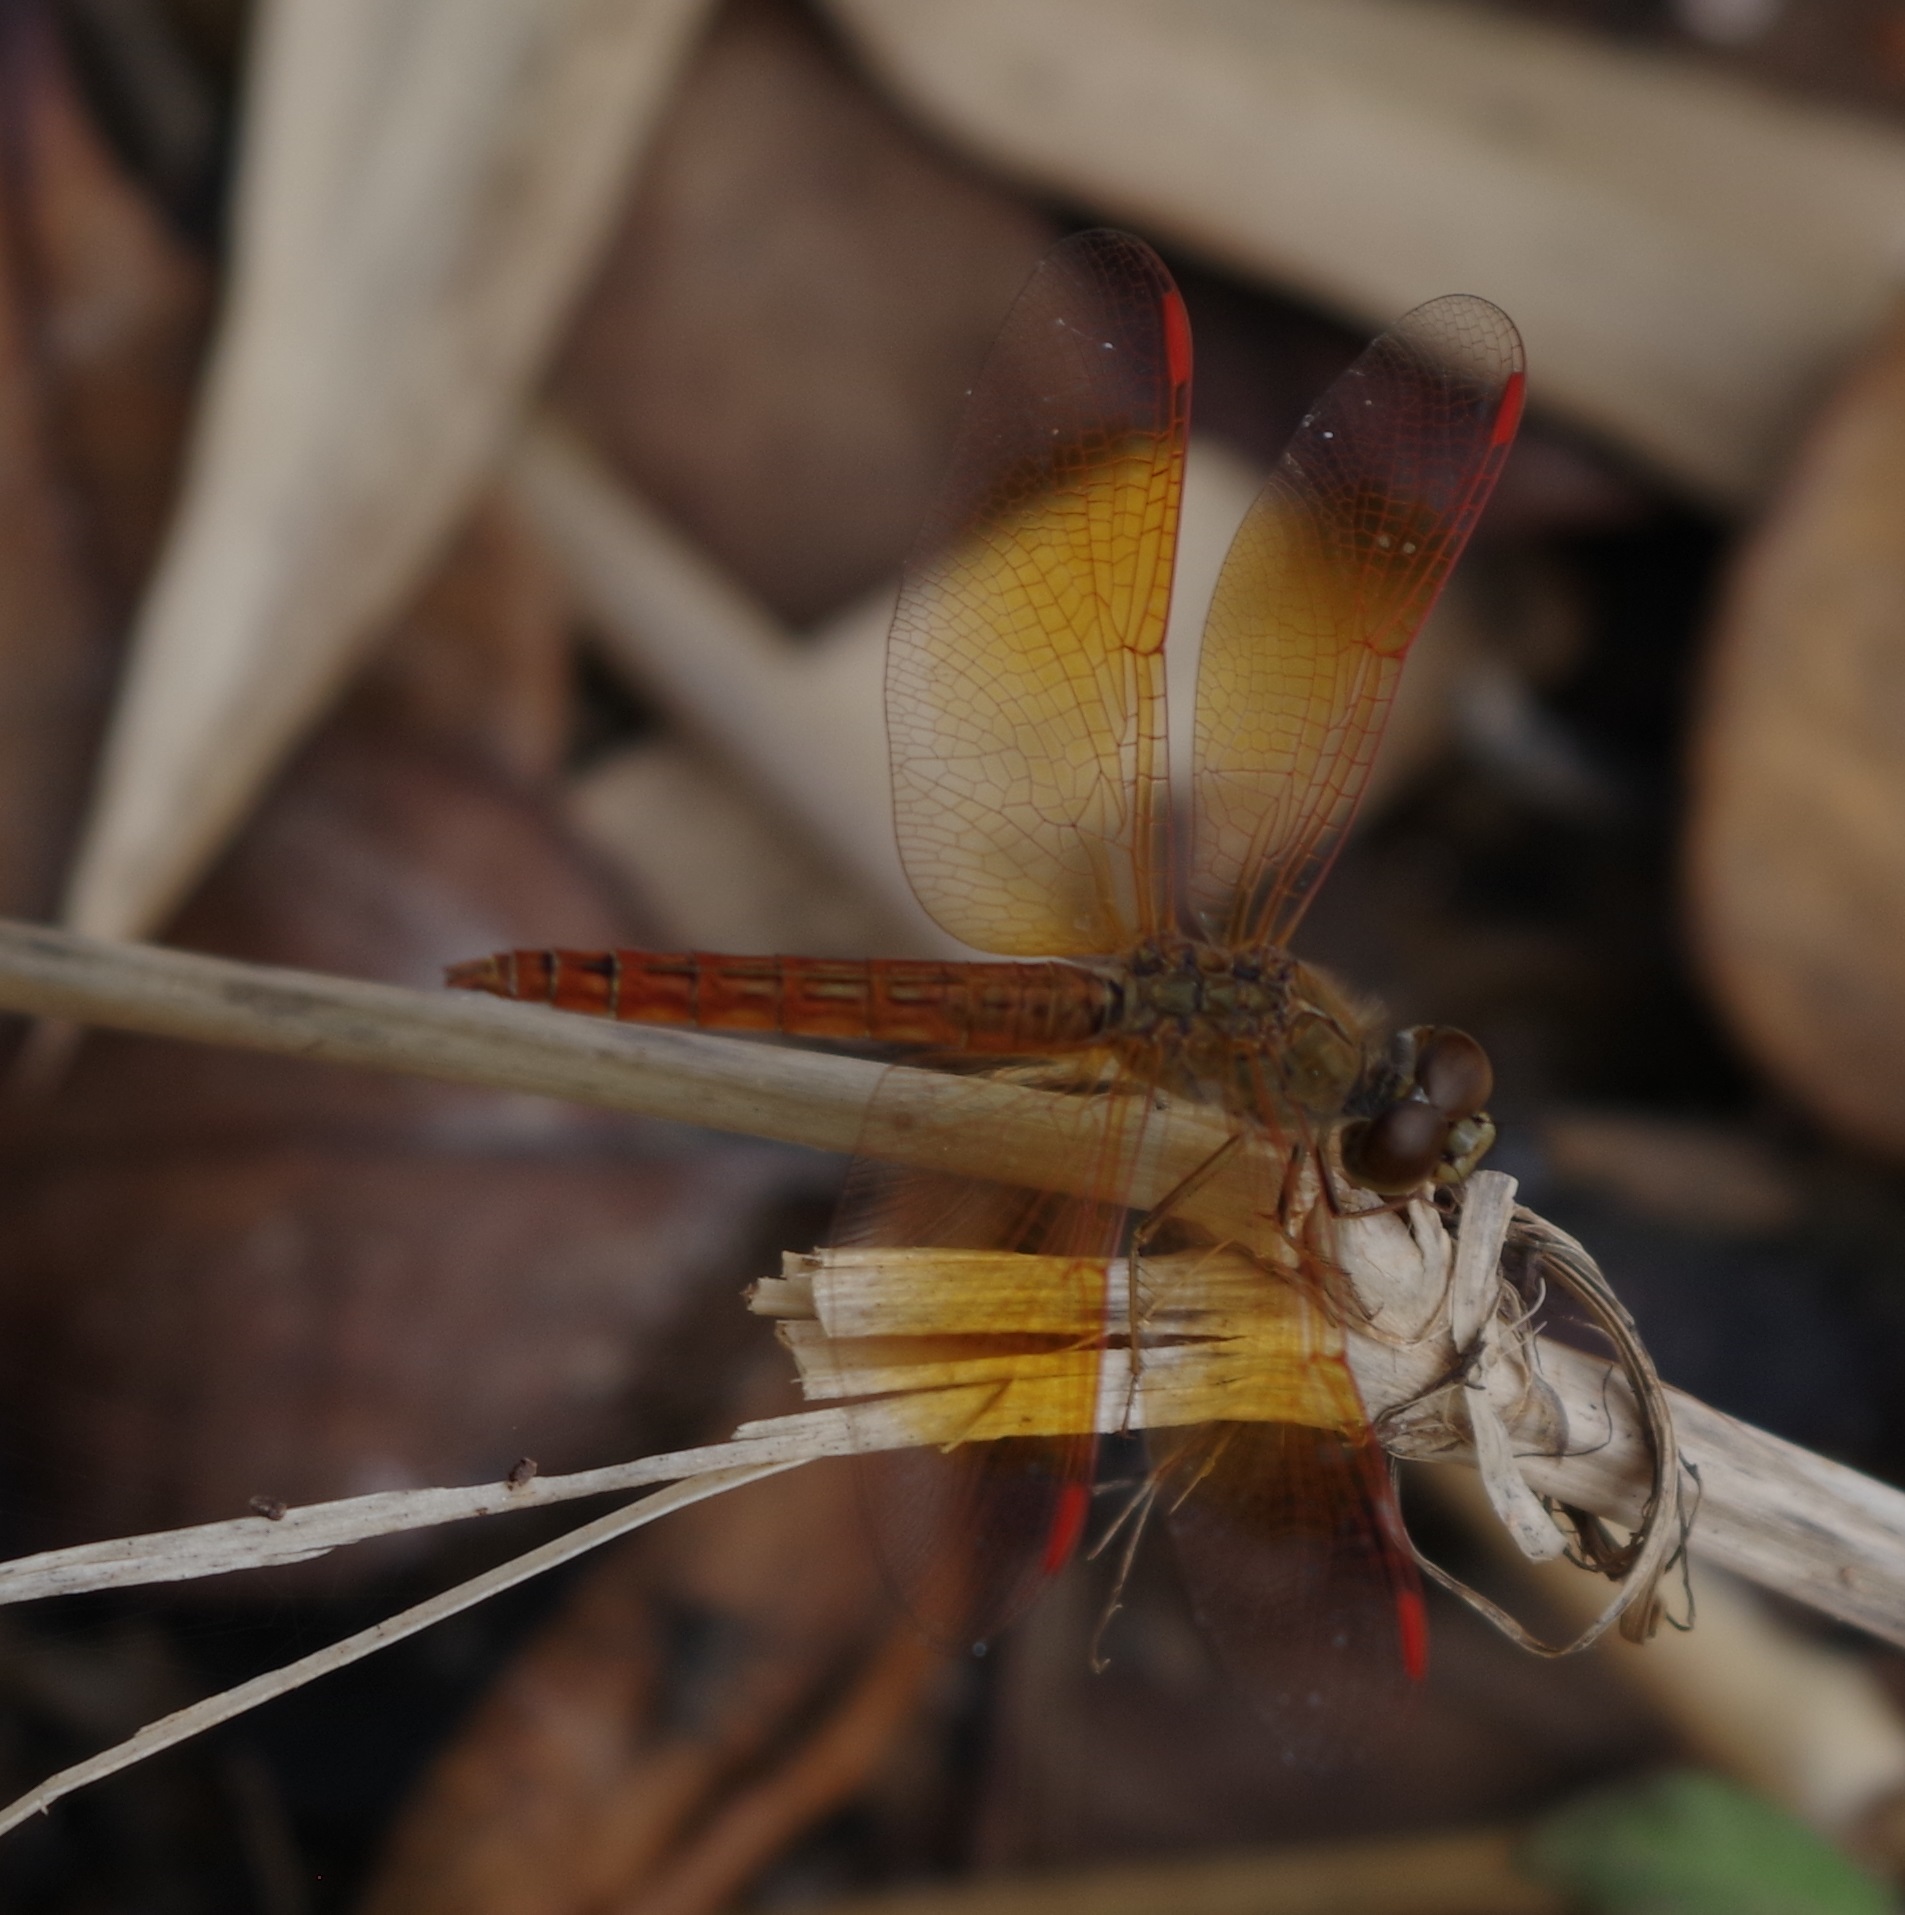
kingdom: Animalia
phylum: Arthropoda
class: Insecta
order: Odonata
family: Libellulidae
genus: Brachythemis
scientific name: Brachythemis contaminata
